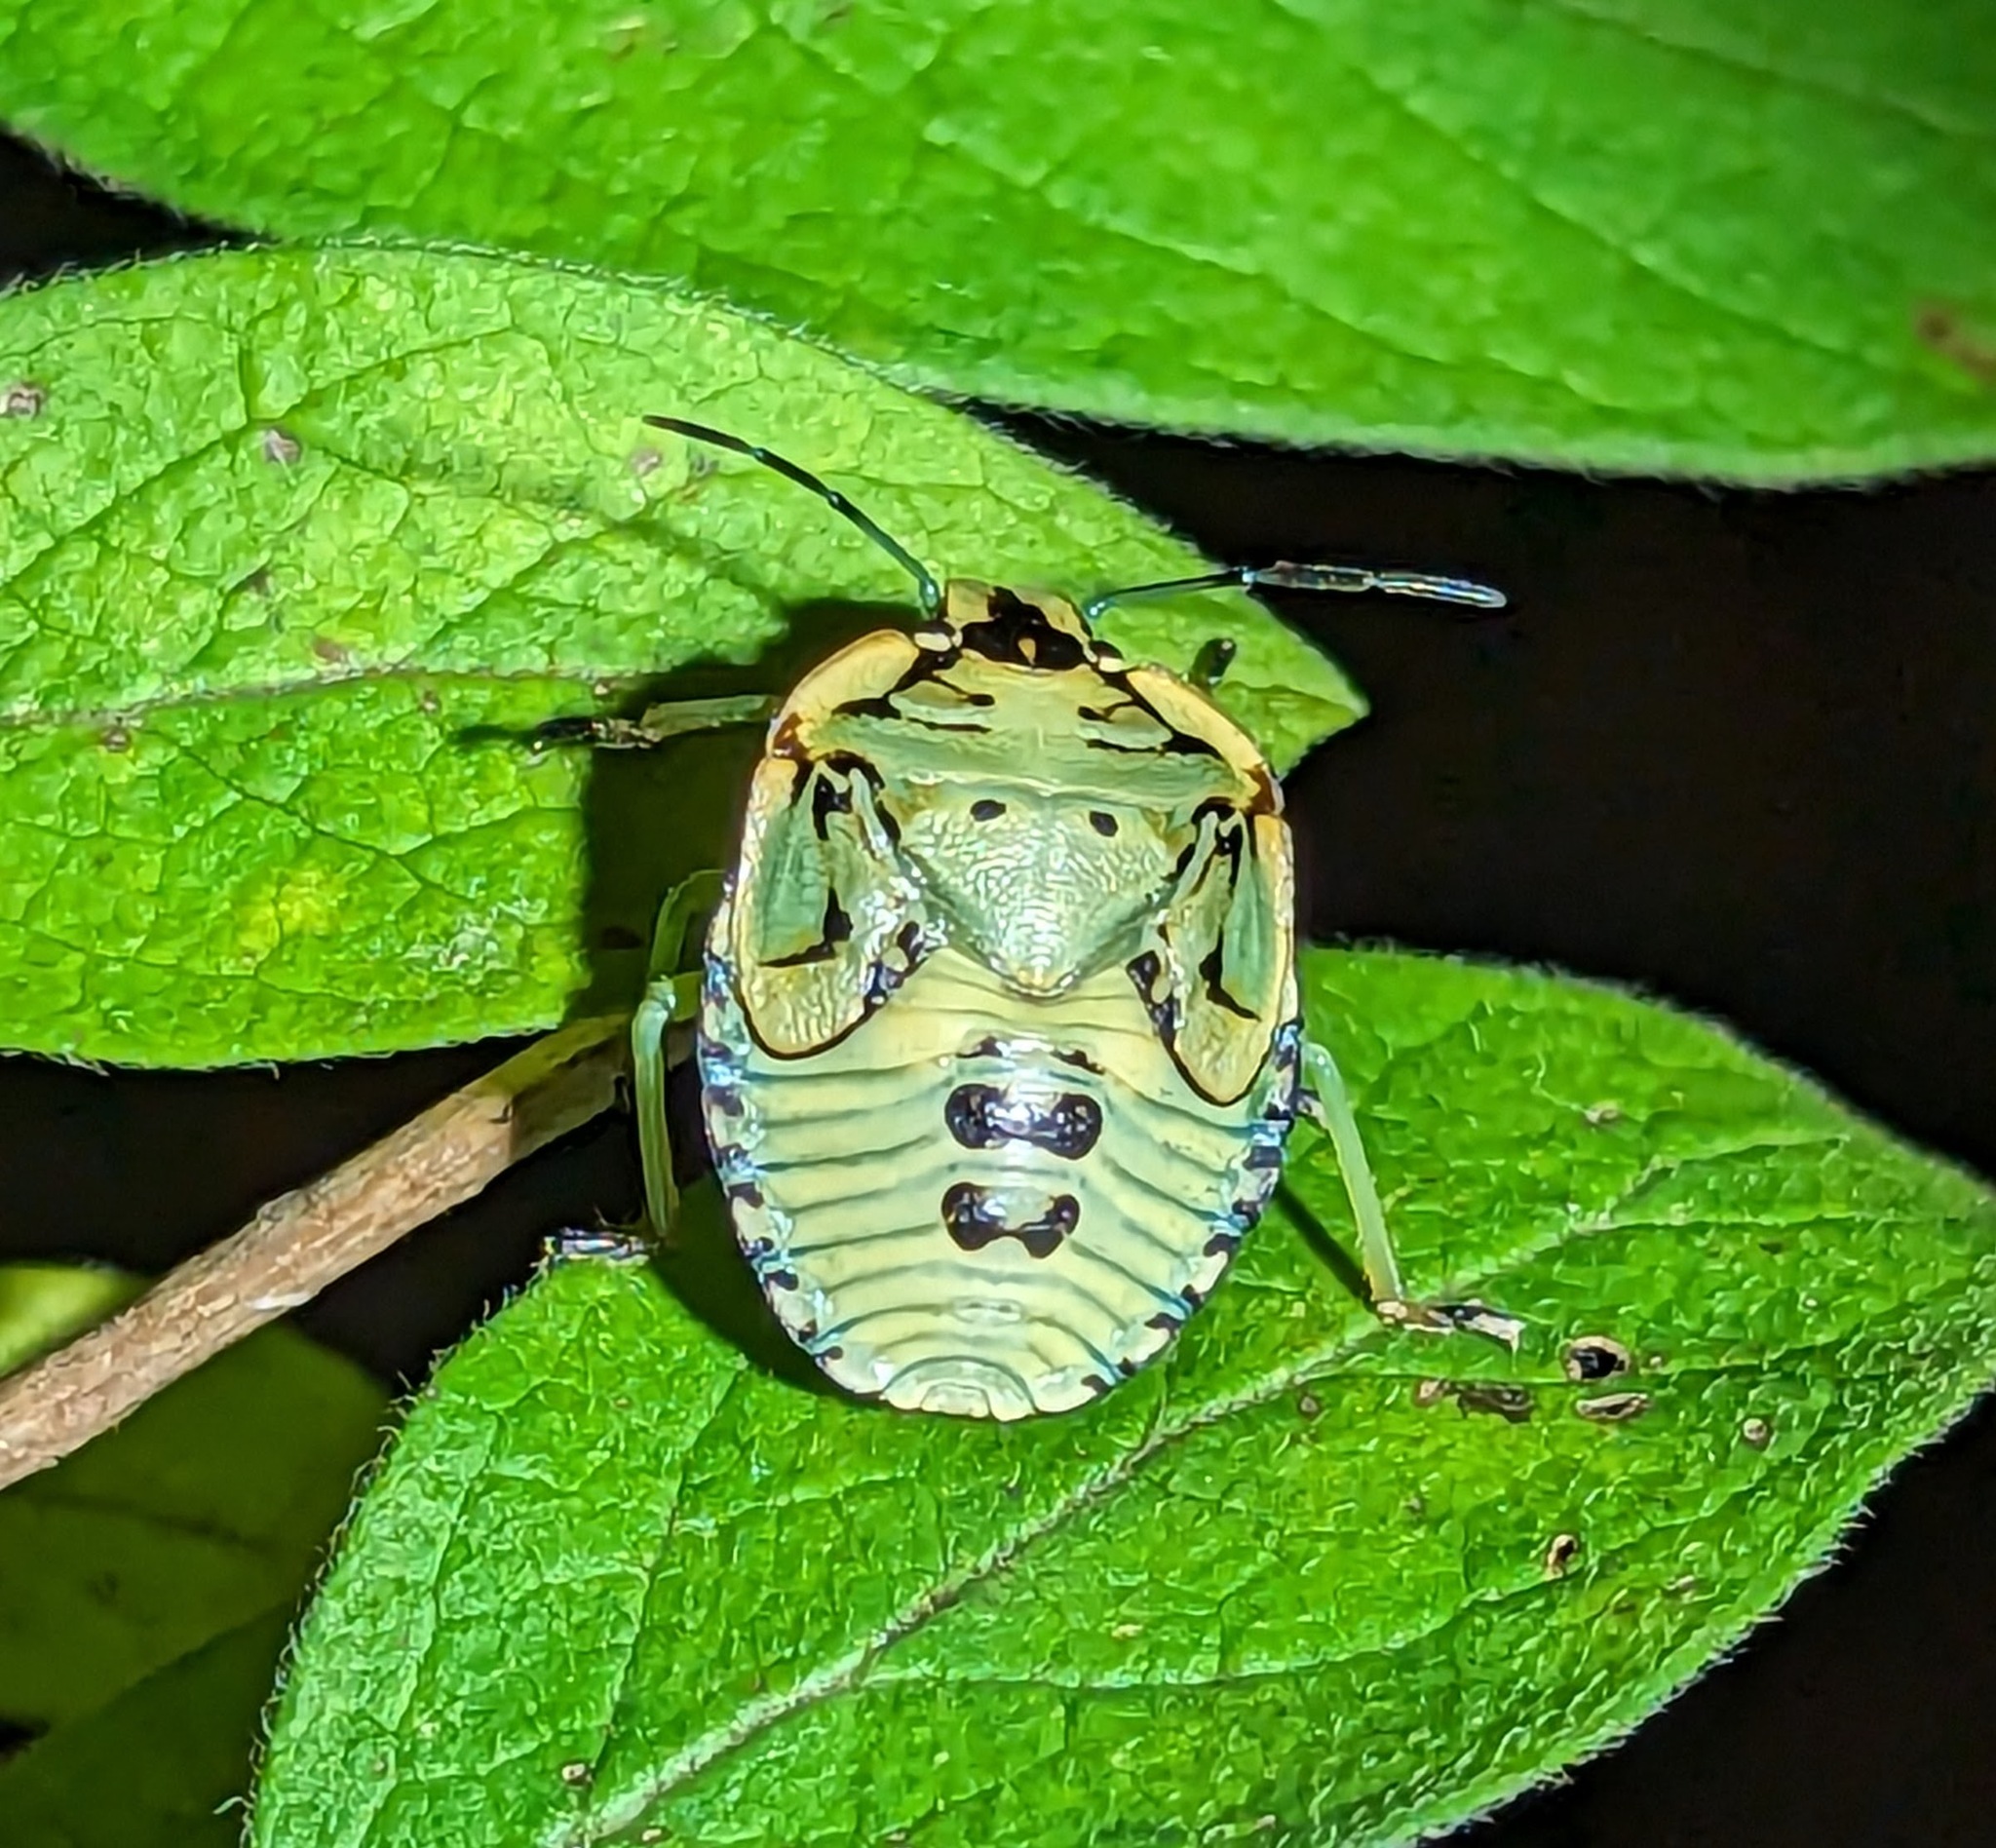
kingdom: Animalia
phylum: Arthropoda
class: Insecta
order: Hemiptera
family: Pentatomidae
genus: Chinavia
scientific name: Chinavia hilaris
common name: Green stink bug
